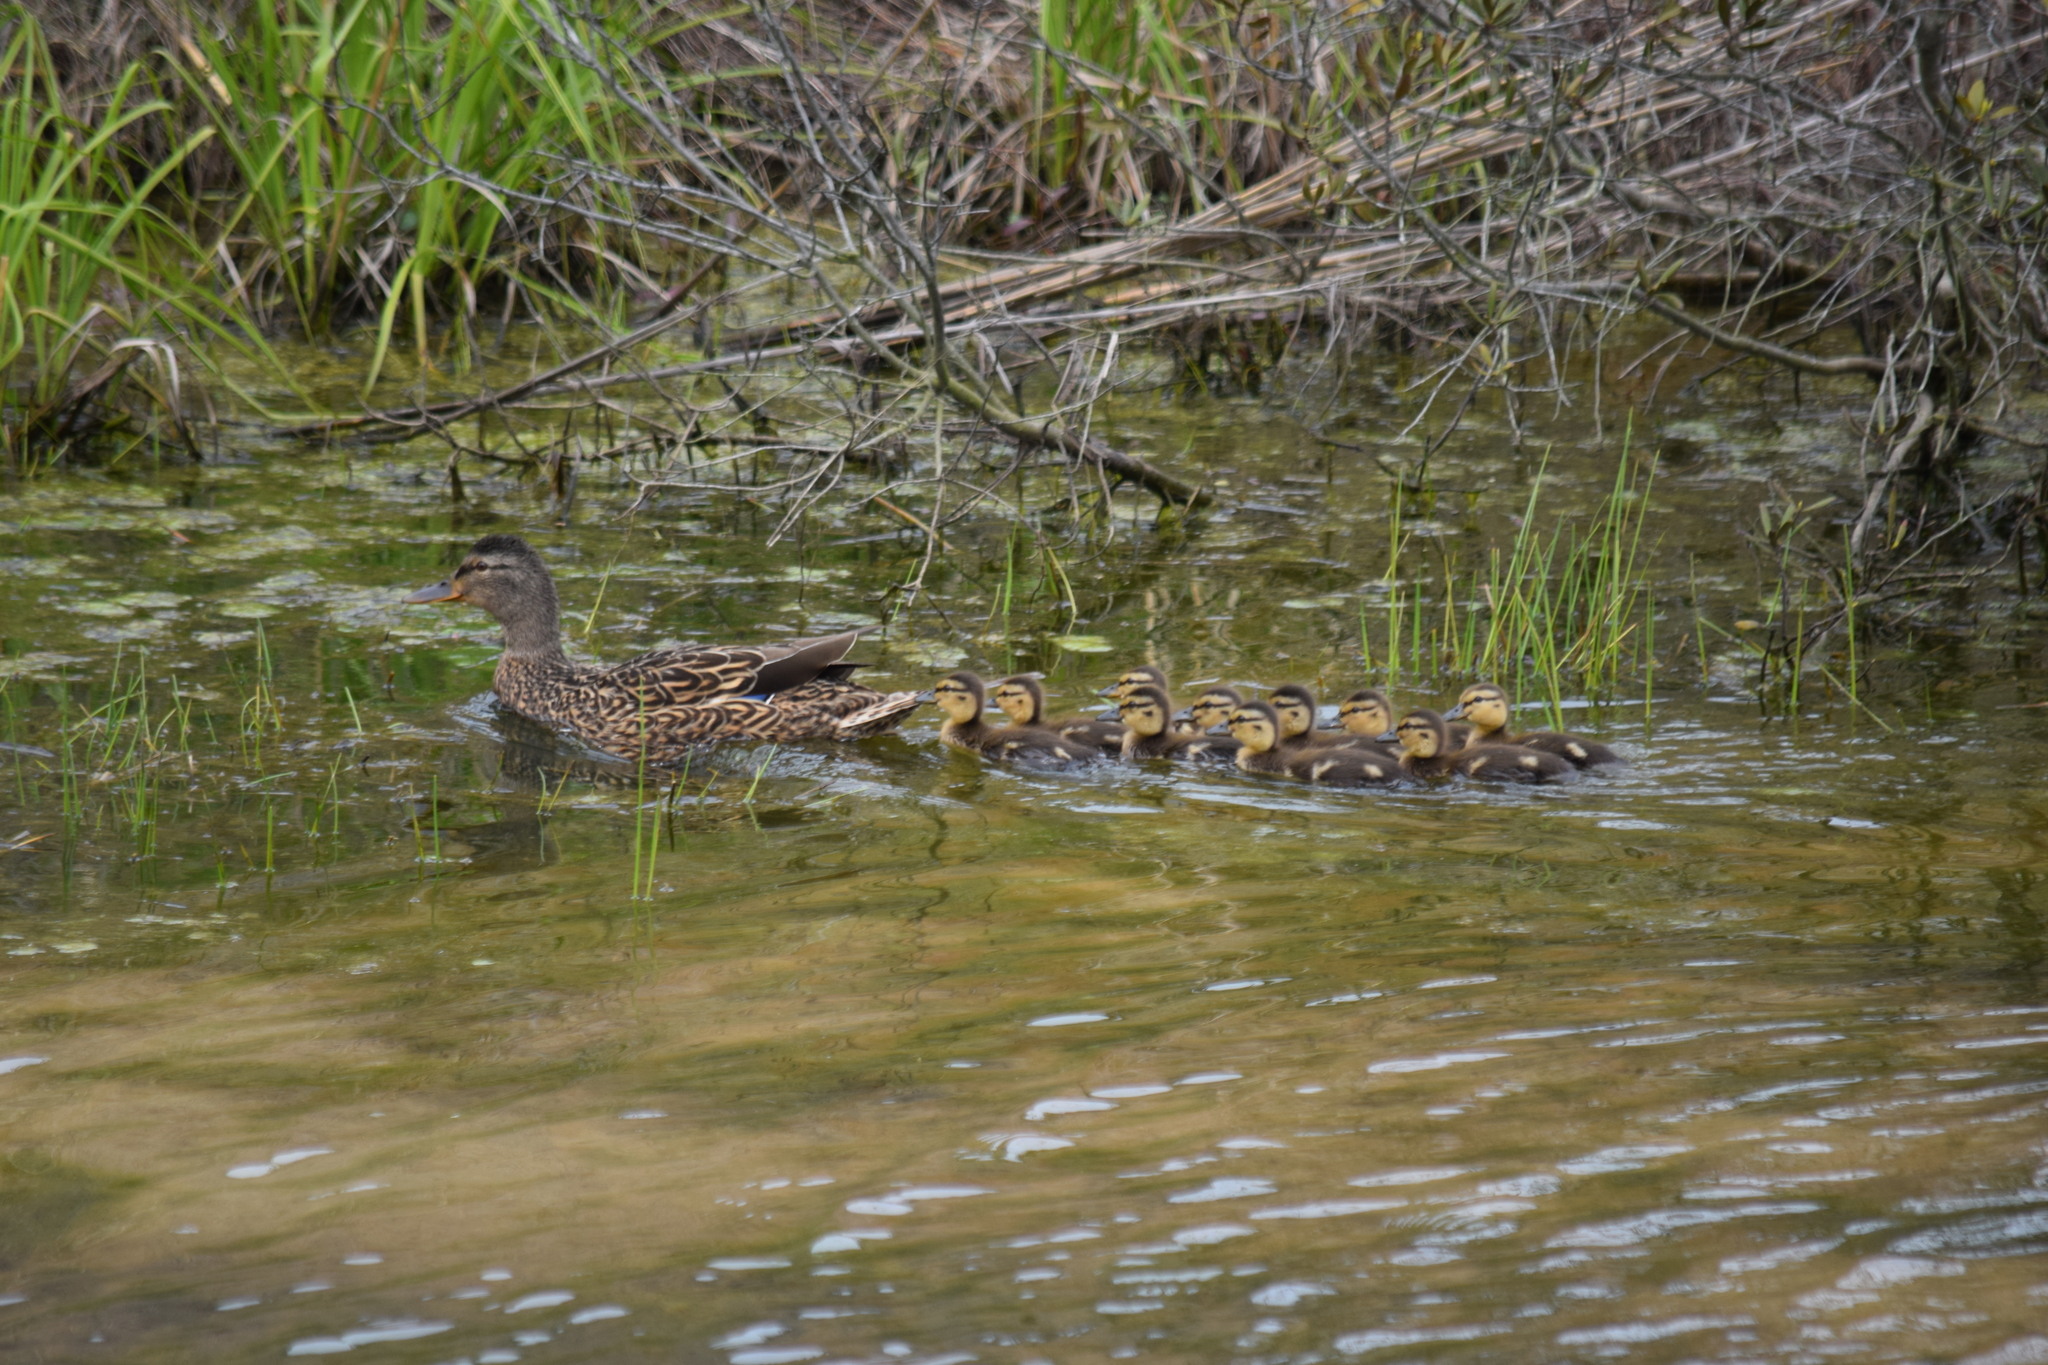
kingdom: Animalia
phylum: Chordata
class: Aves
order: Anseriformes
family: Anatidae
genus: Anas
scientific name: Anas platyrhynchos
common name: Mallard
